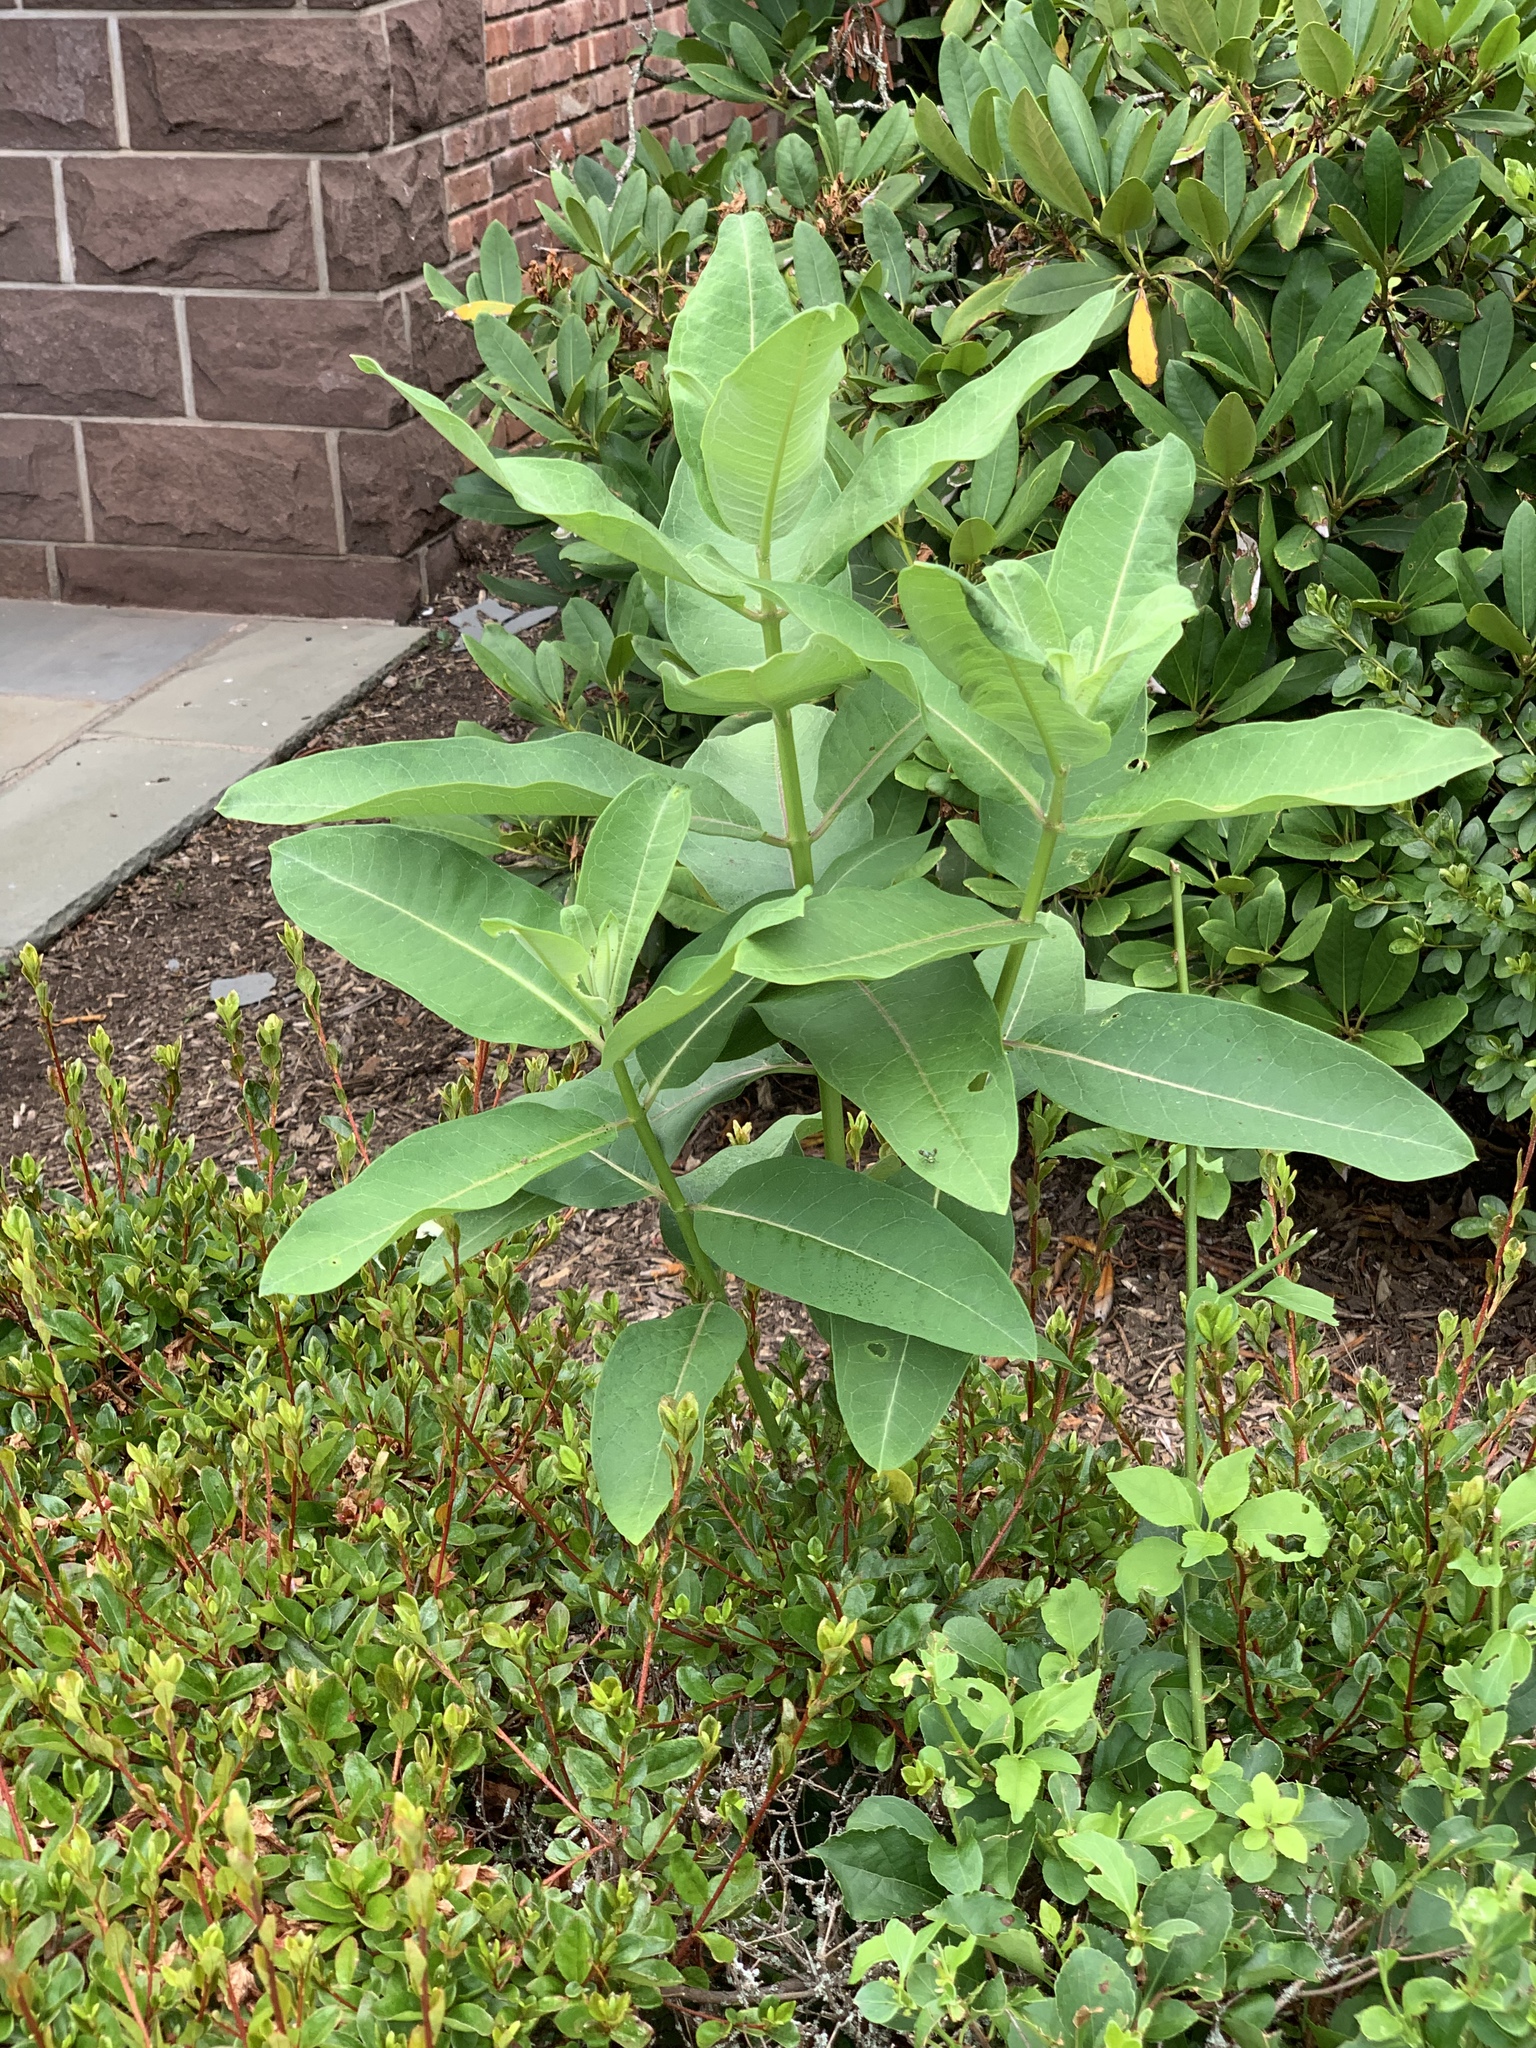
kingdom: Plantae
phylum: Tracheophyta
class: Magnoliopsida
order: Gentianales
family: Apocynaceae
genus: Asclepias
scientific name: Asclepias syriaca
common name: Common milkweed
